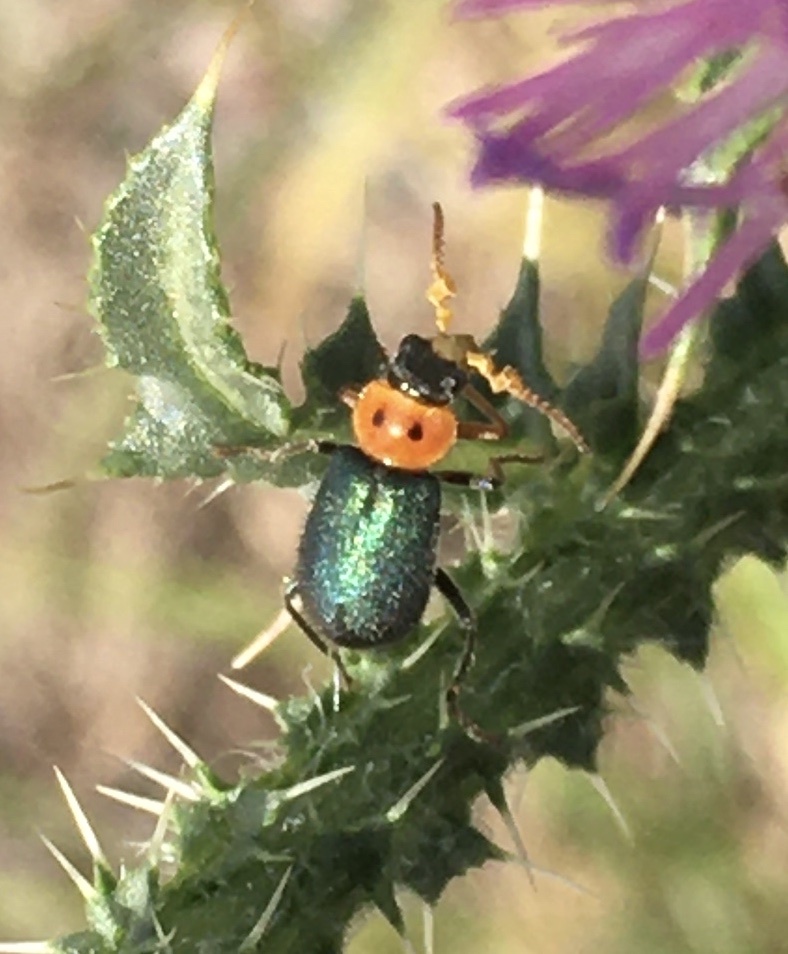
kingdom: Animalia
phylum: Arthropoda
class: Insecta
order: Coleoptera
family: Melyridae
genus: Collops
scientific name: Collops bipunctatus
